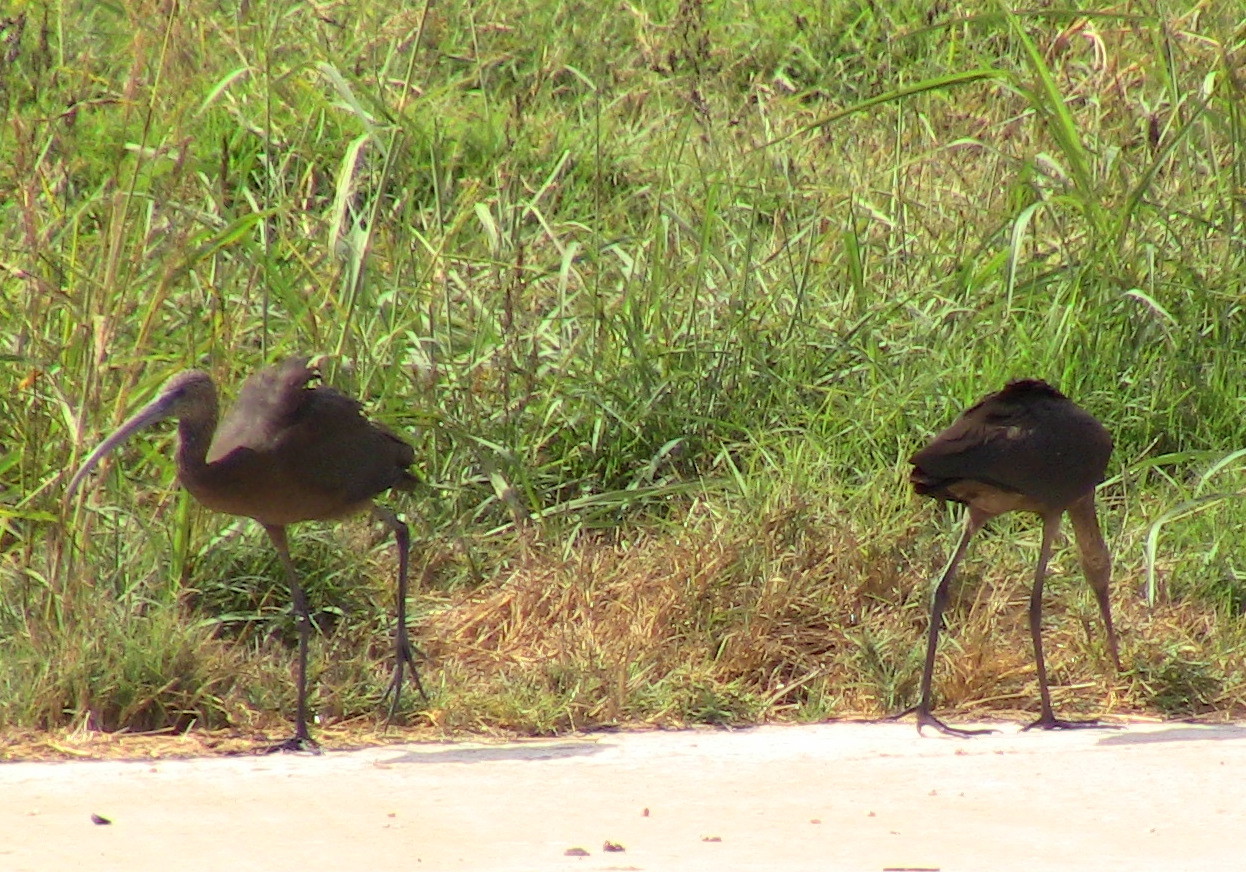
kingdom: Animalia
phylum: Chordata
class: Aves
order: Pelecaniformes
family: Threskiornithidae
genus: Plegadis
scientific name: Plegadis falcinellus
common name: Glossy ibis
